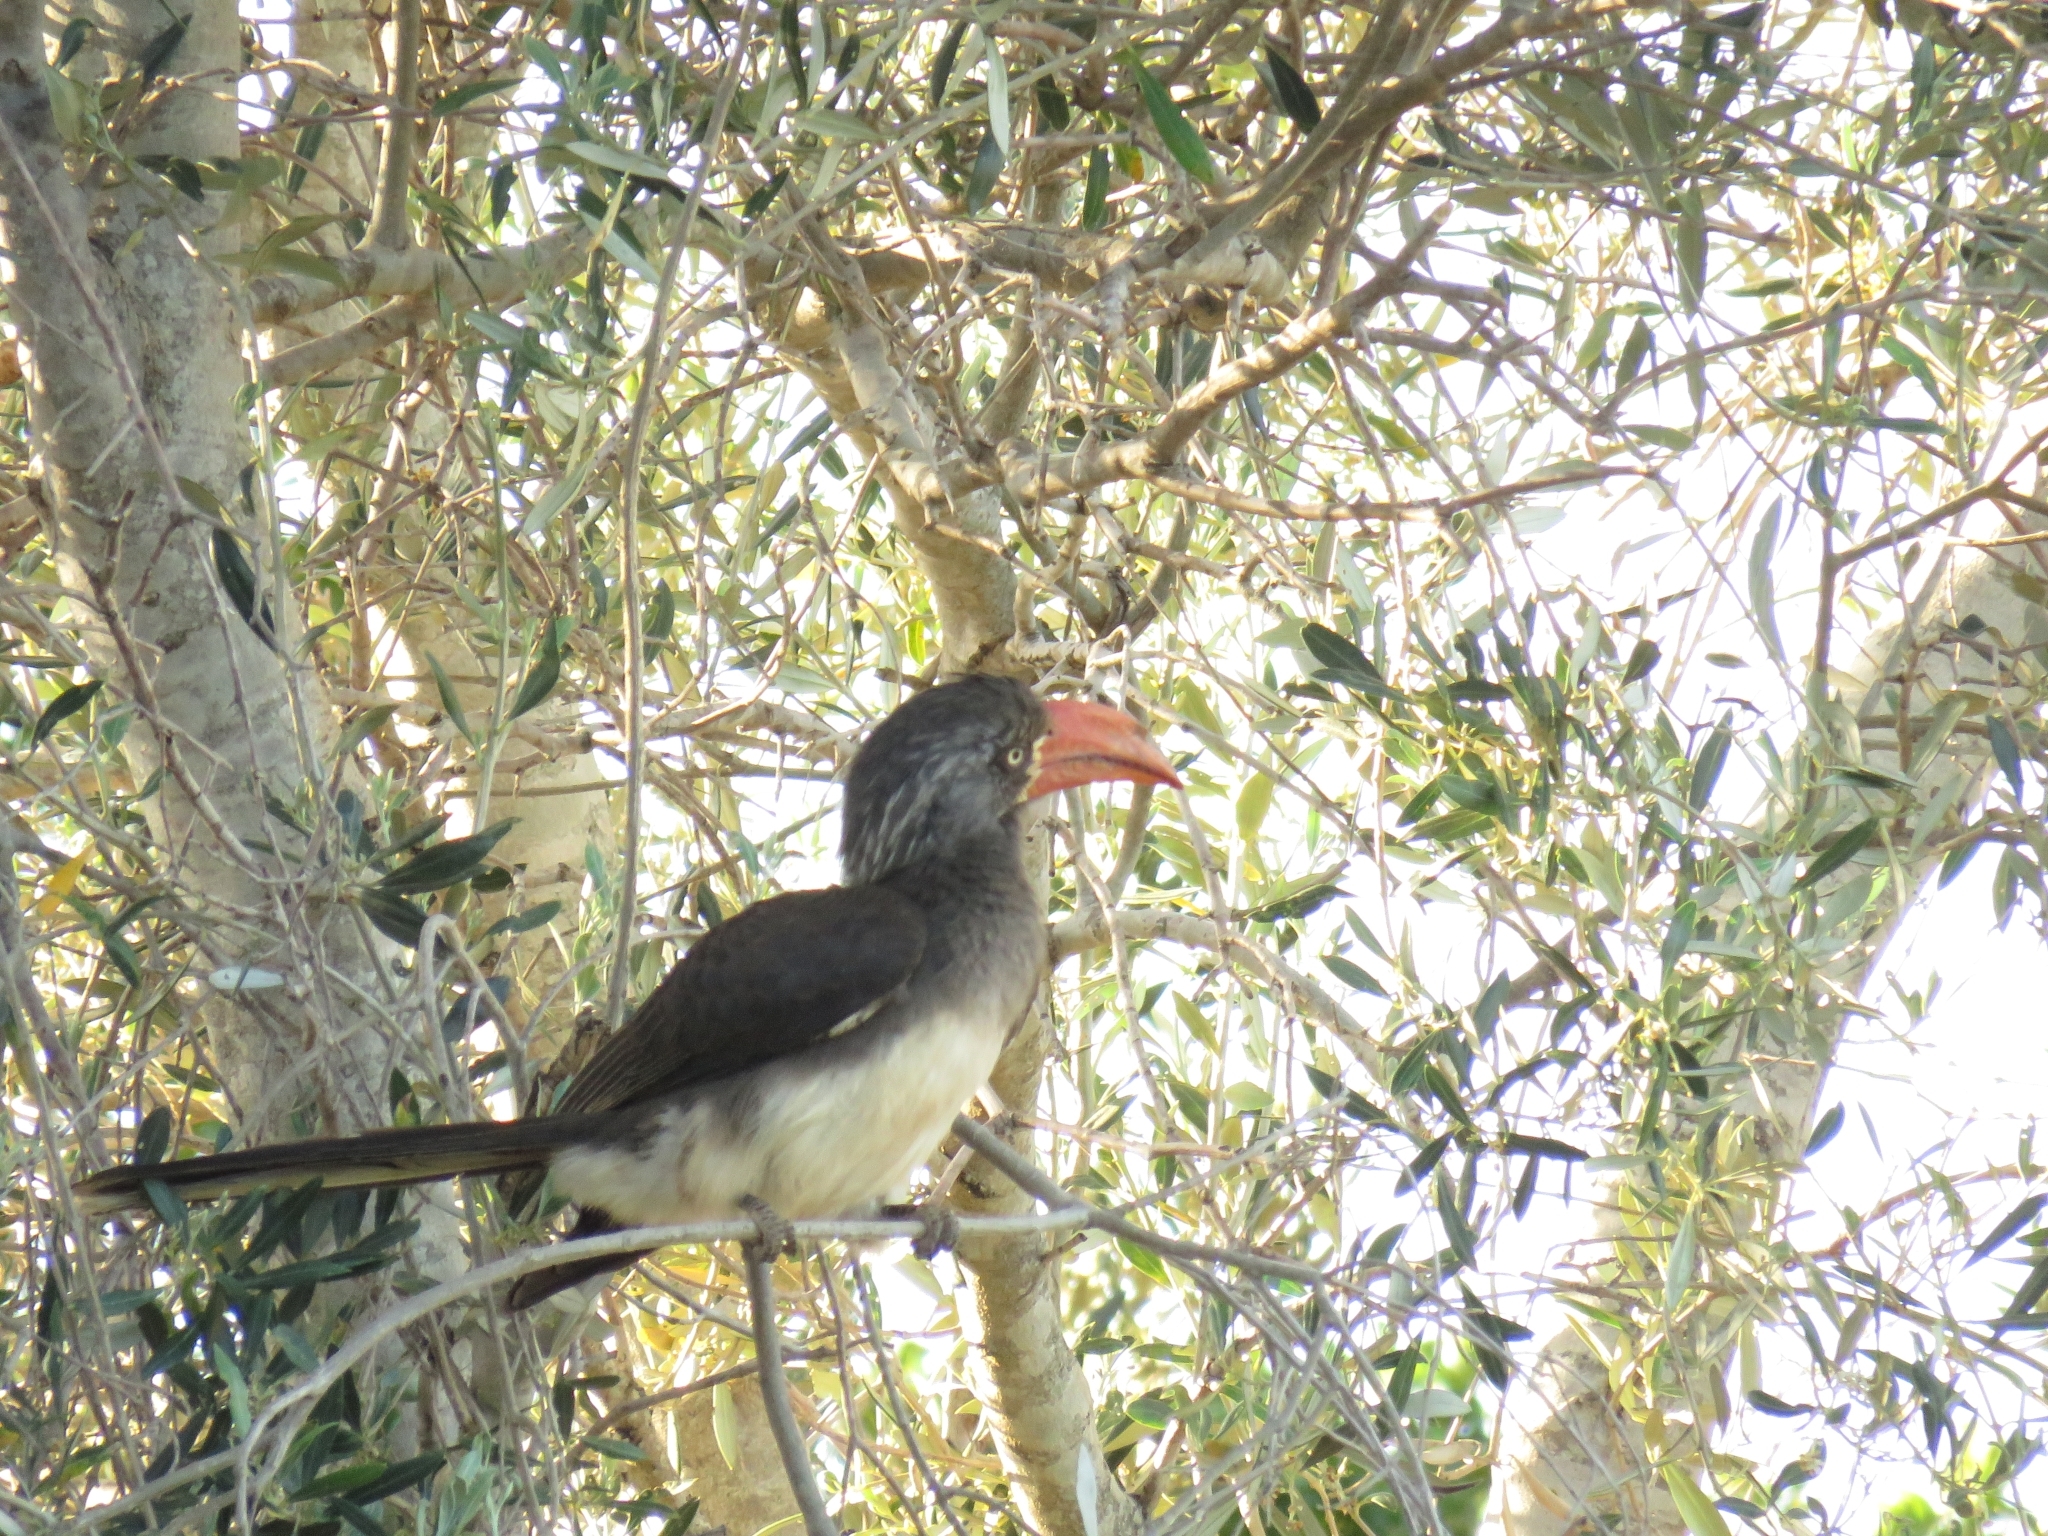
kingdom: Animalia
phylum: Chordata
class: Aves
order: Bucerotiformes
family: Bucerotidae
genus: Lophoceros
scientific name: Lophoceros alboterminatus
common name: Crowned hornbill
